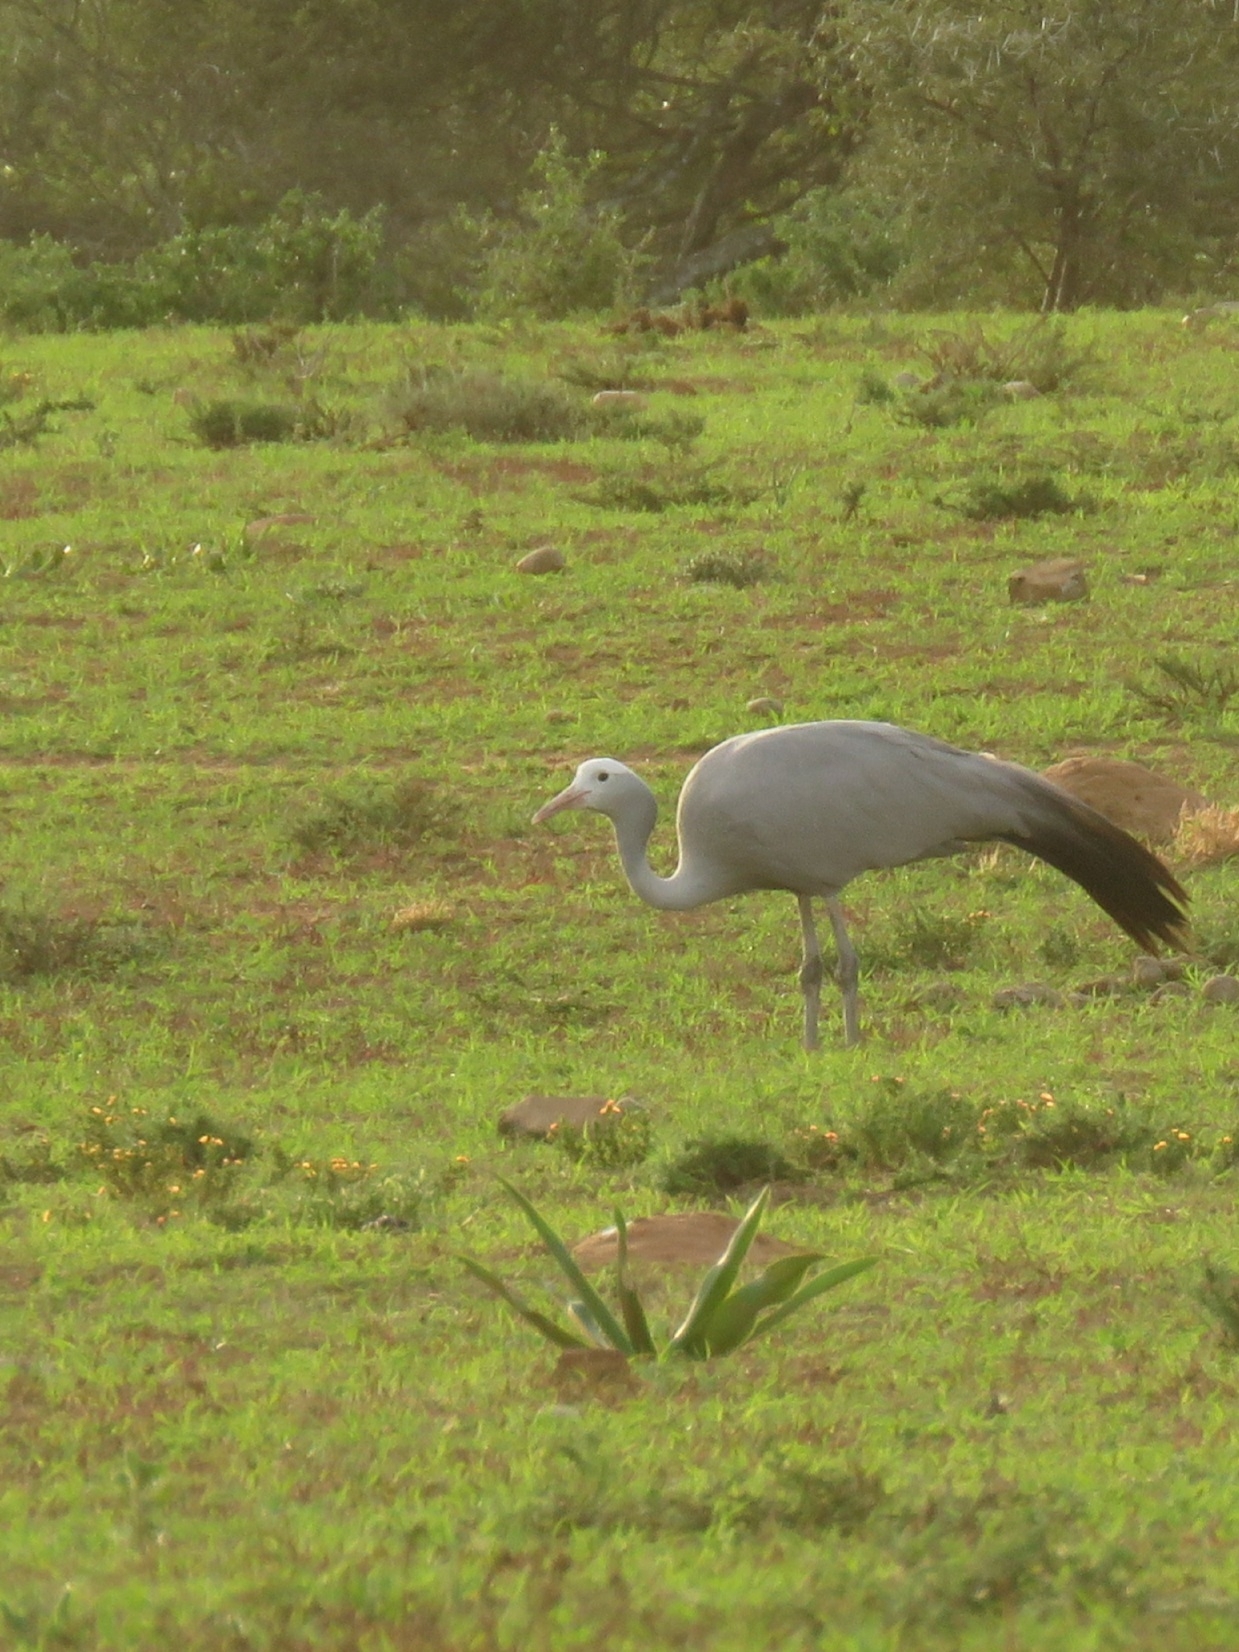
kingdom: Animalia
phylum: Chordata
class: Aves
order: Gruiformes
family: Gruidae
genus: Anthropoides
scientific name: Anthropoides paradiseus
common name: Blue crane
